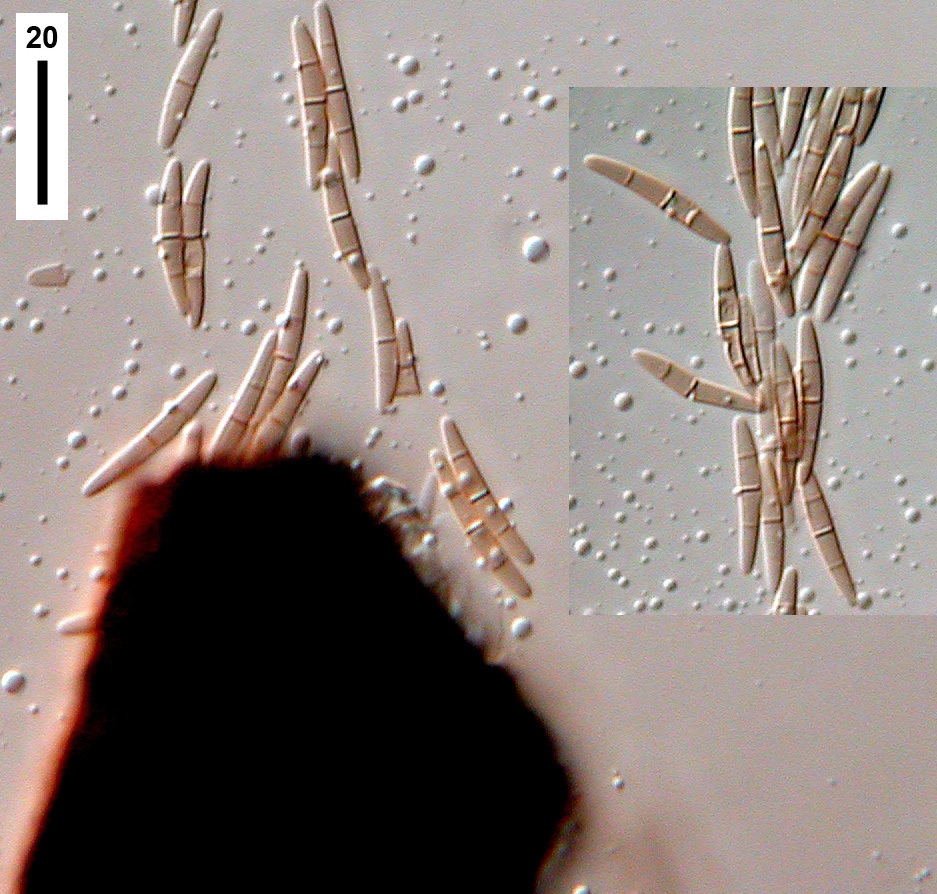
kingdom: Fungi
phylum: Ascomycota
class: Dothideomycetes
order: Mytilinidiales
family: Mytilinidiaceae
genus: Mytilinidion
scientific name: Mytilinidion mytilinellum
